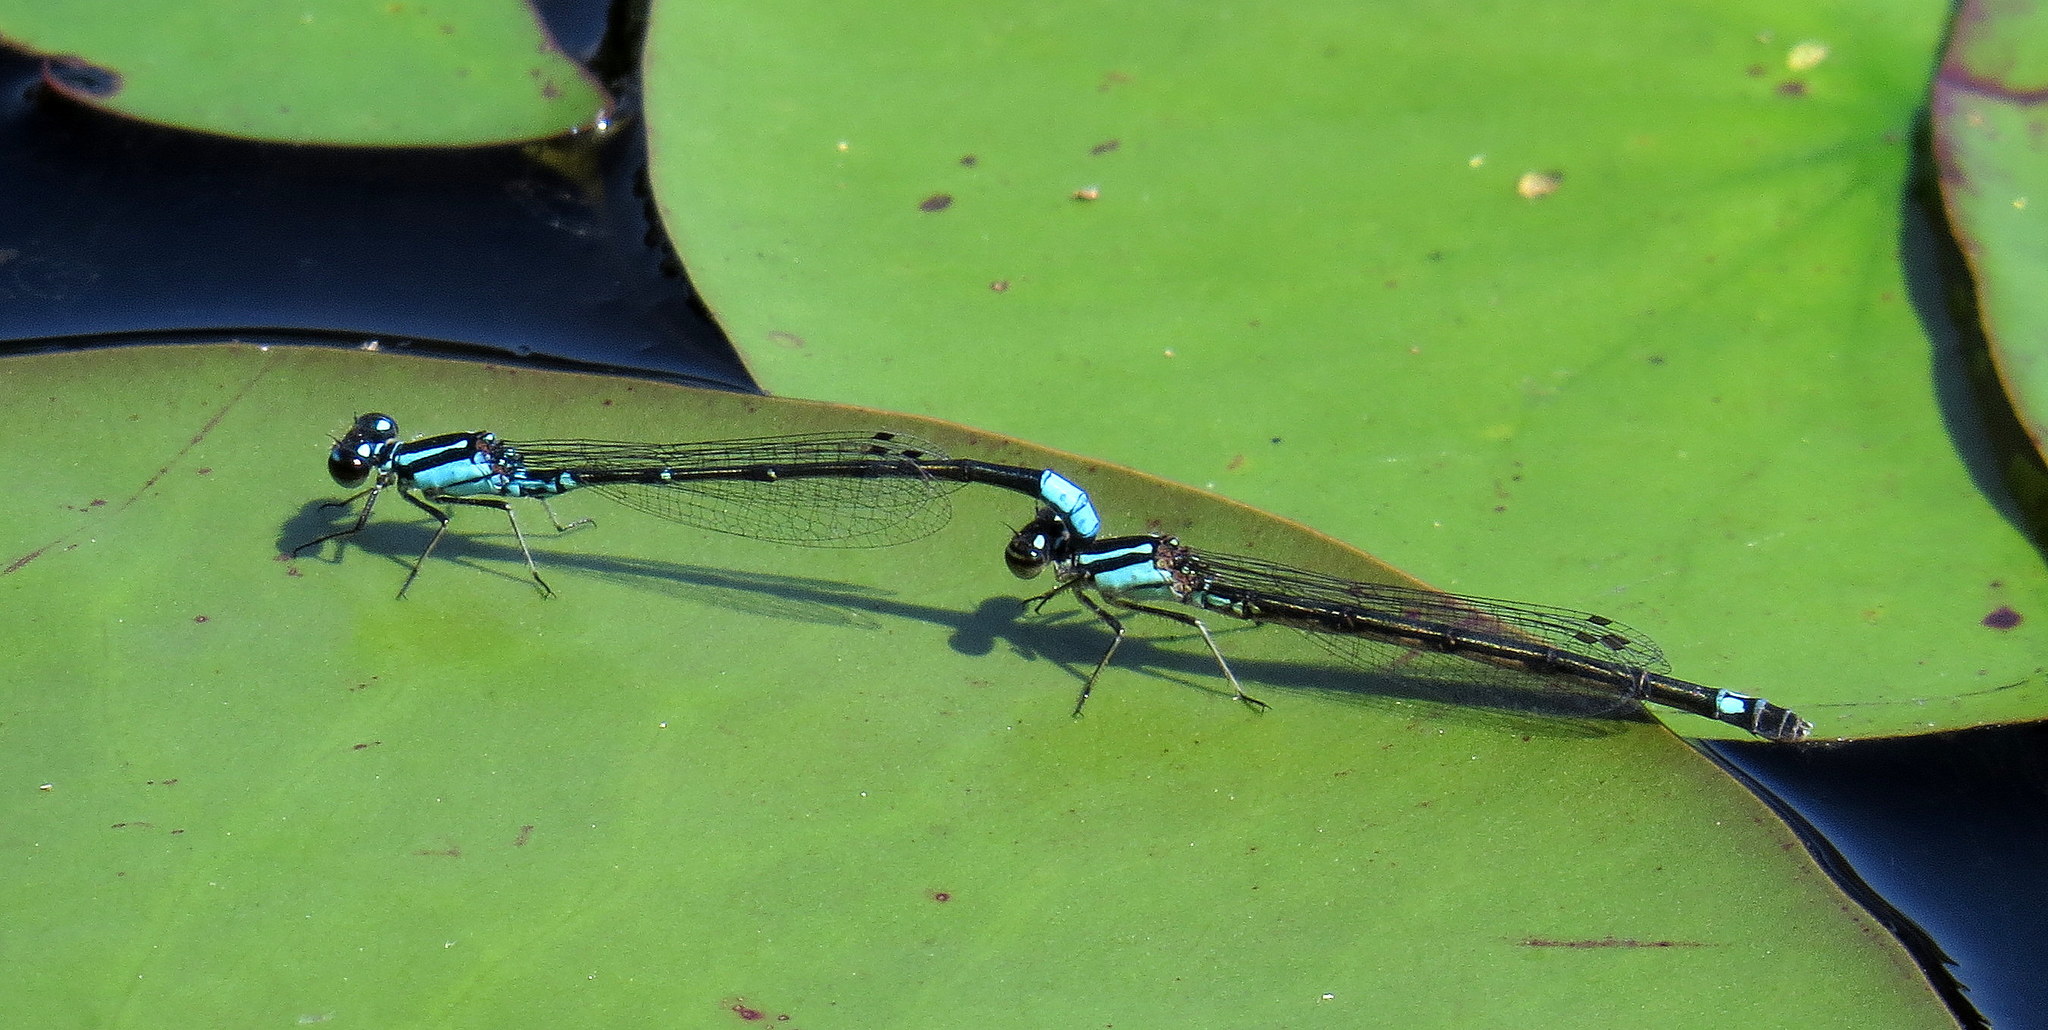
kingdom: Animalia
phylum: Arthropoda
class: Insecta
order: Odonata
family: Coenagrionidae
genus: Enallagma
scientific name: Enallagma geminatum
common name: Skimming bluet
